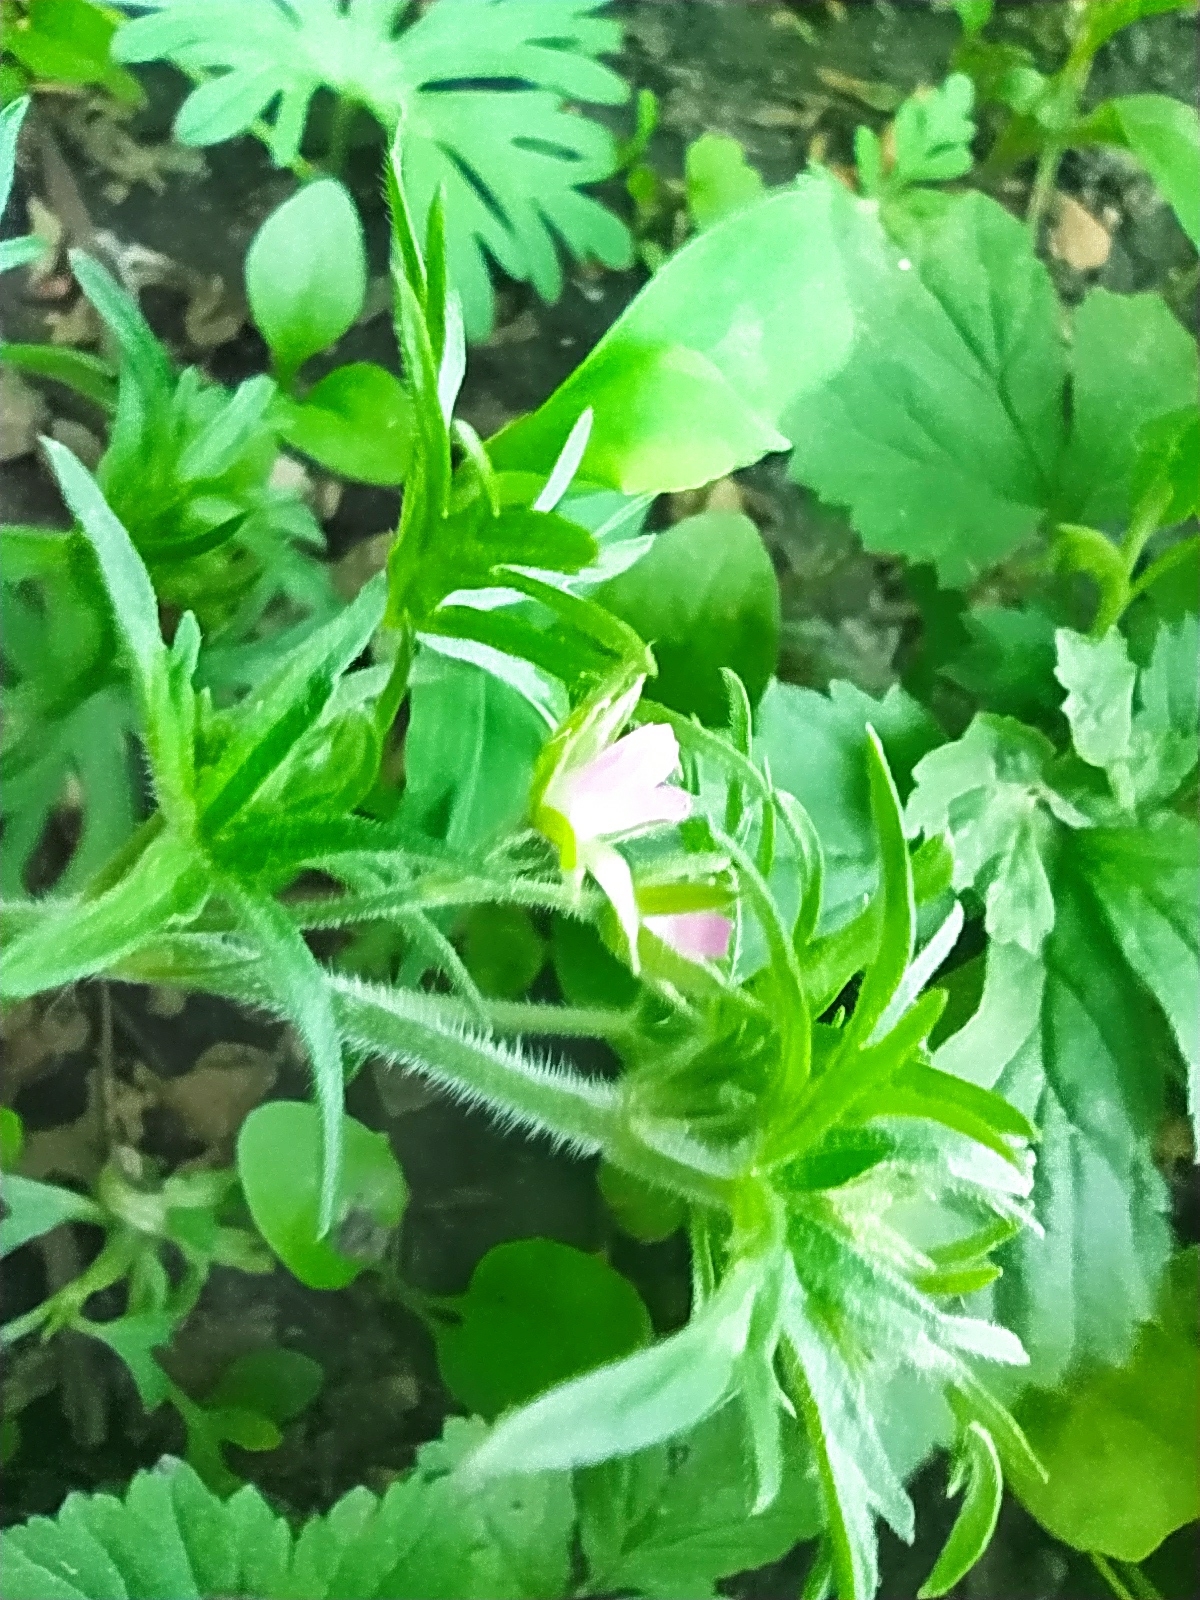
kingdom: Plantae
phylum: Tracheophyta
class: Magnoliopsida
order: Geraniales
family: Geraniaceae
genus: Geranium
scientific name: Geranium dissectum
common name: Cut-leaved crane's-bill
